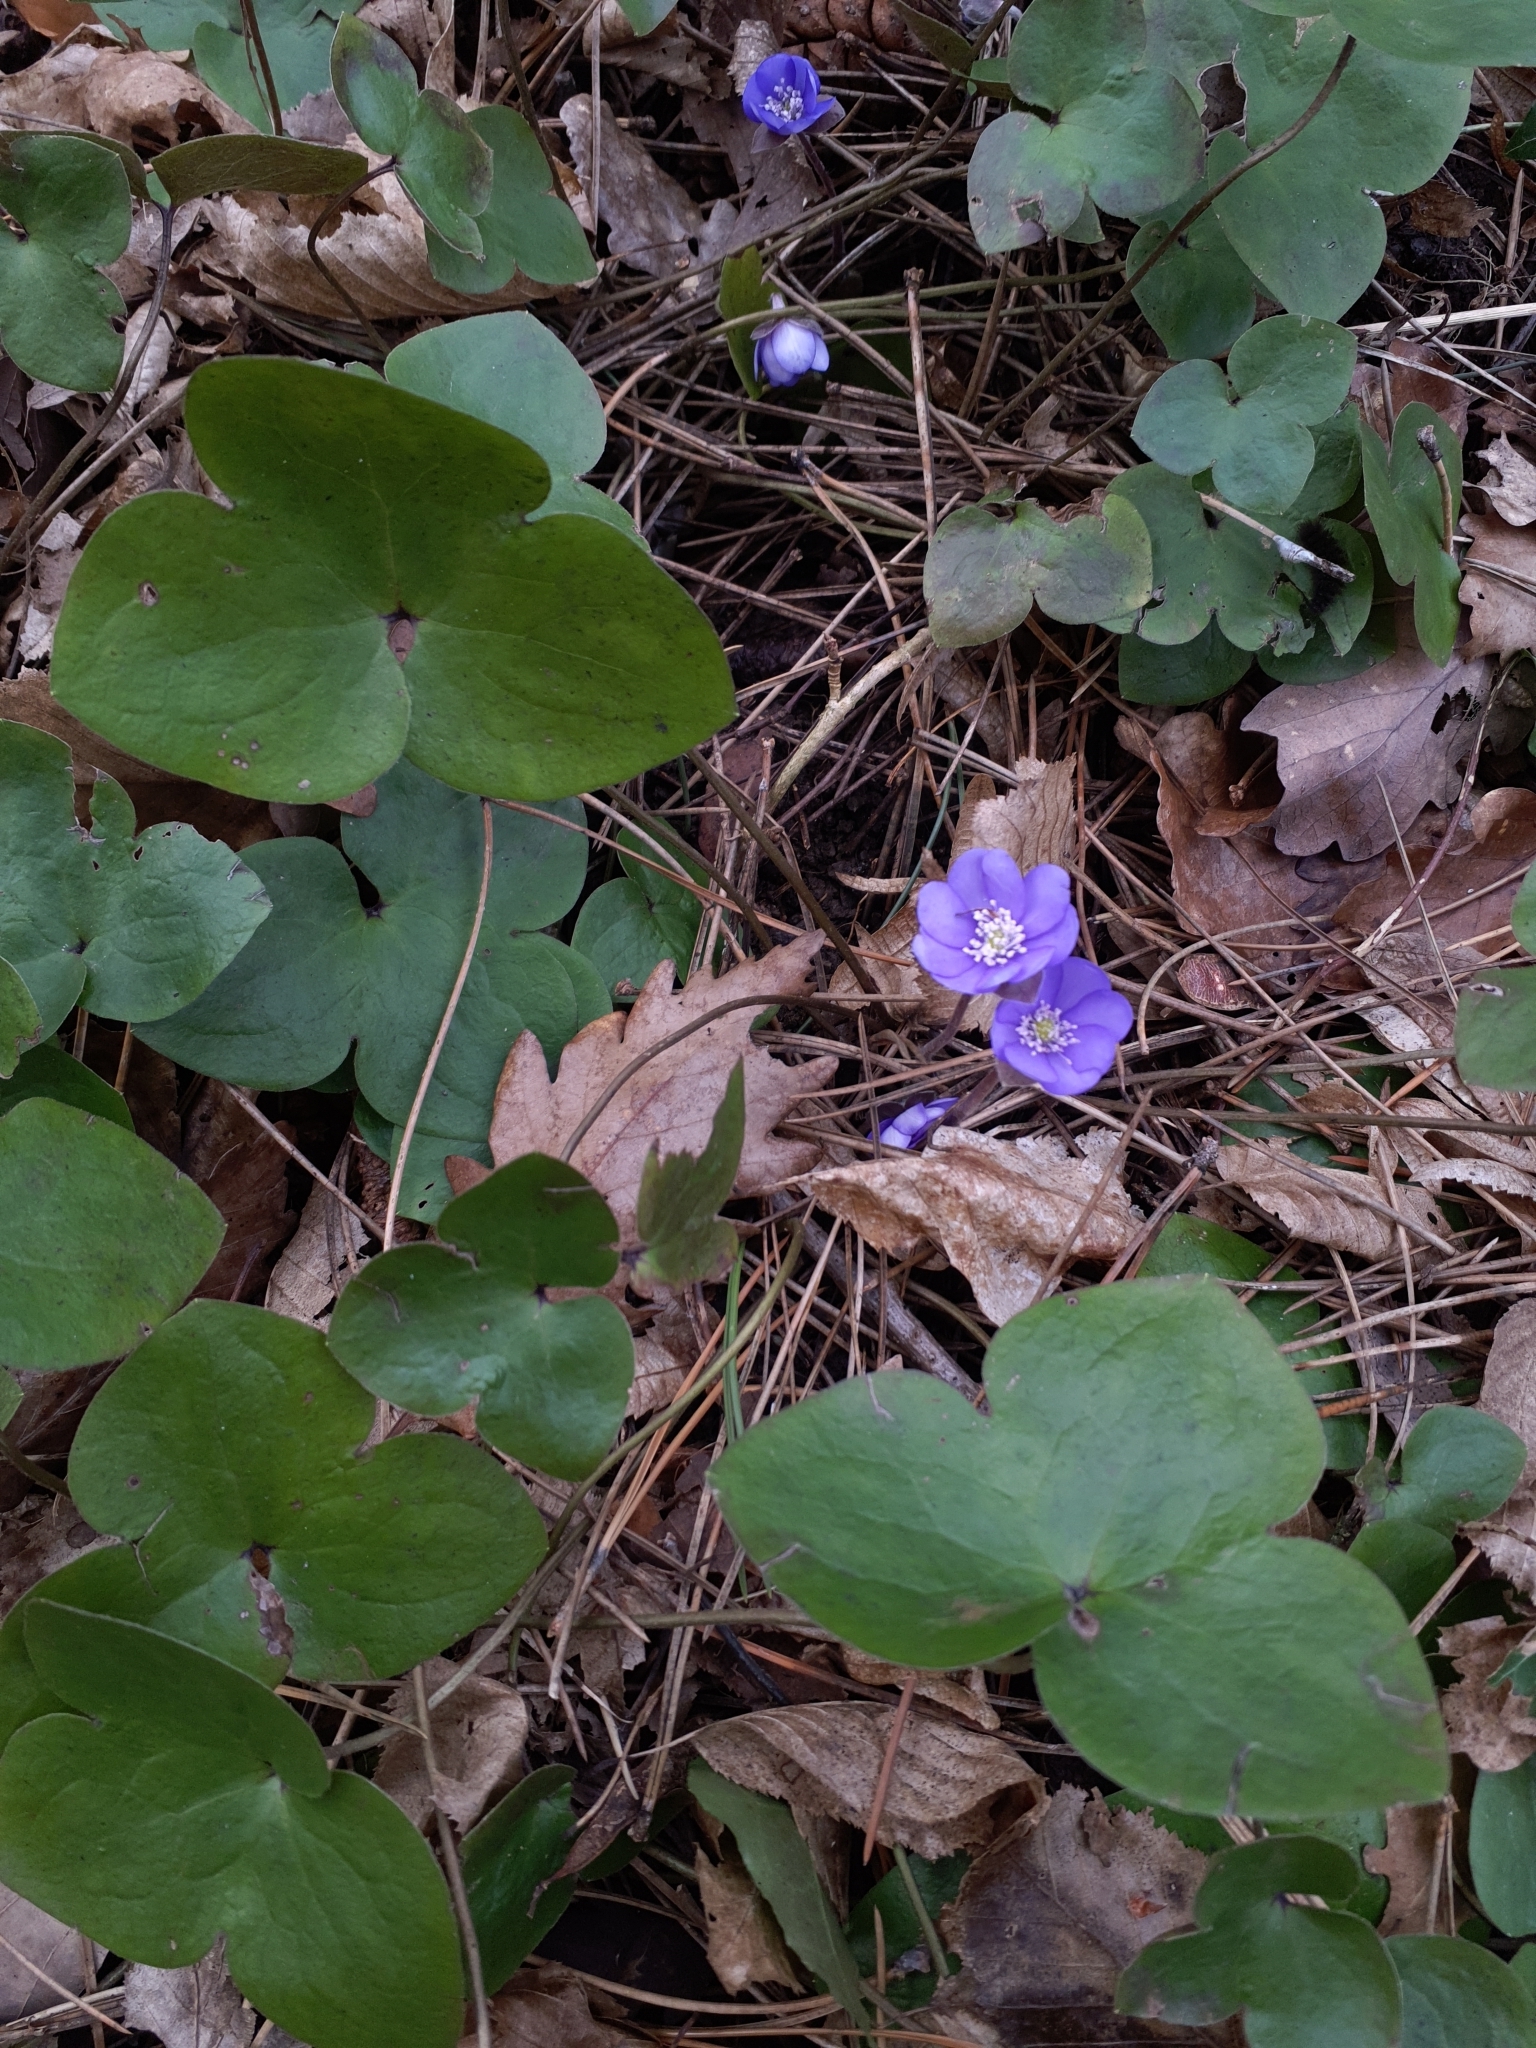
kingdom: Plantae
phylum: Tracheophyta
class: Magnoliopsida
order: Ranunculales
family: Ranunculaceae
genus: Hepatica
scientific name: Hepatica nobilis
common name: Liverleaf
